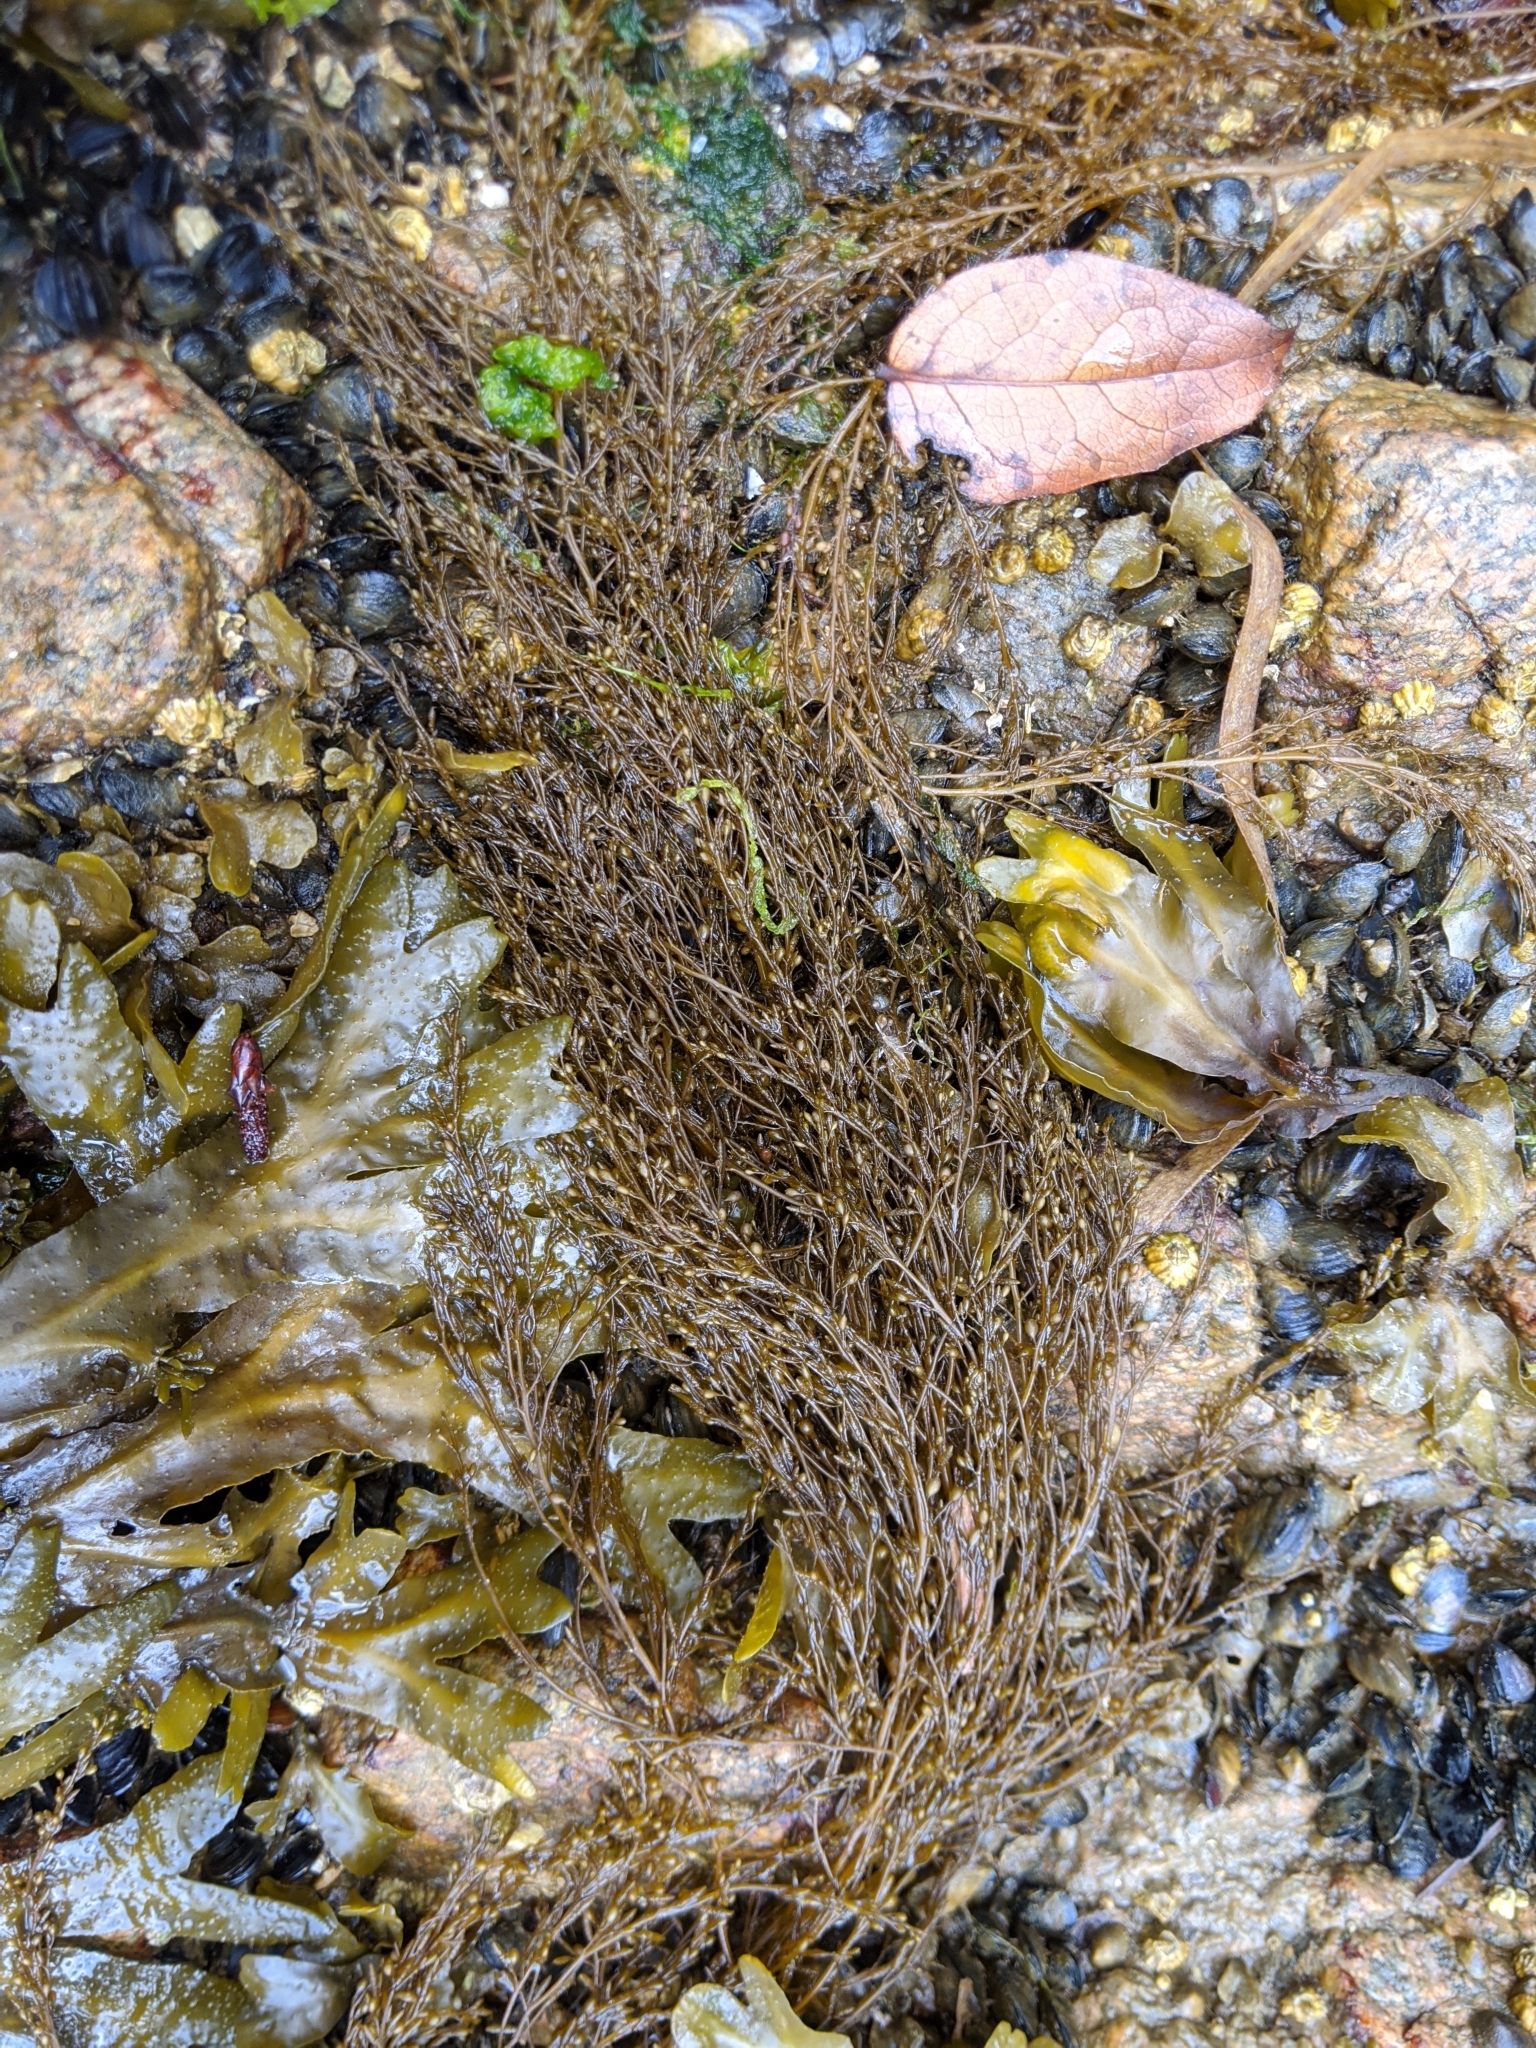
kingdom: Chromista
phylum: Ochrophyta
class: Phaeophyceae
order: Fucales
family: Sargassaceae
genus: Sargassum
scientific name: Sargassum muticum
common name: Japweed
